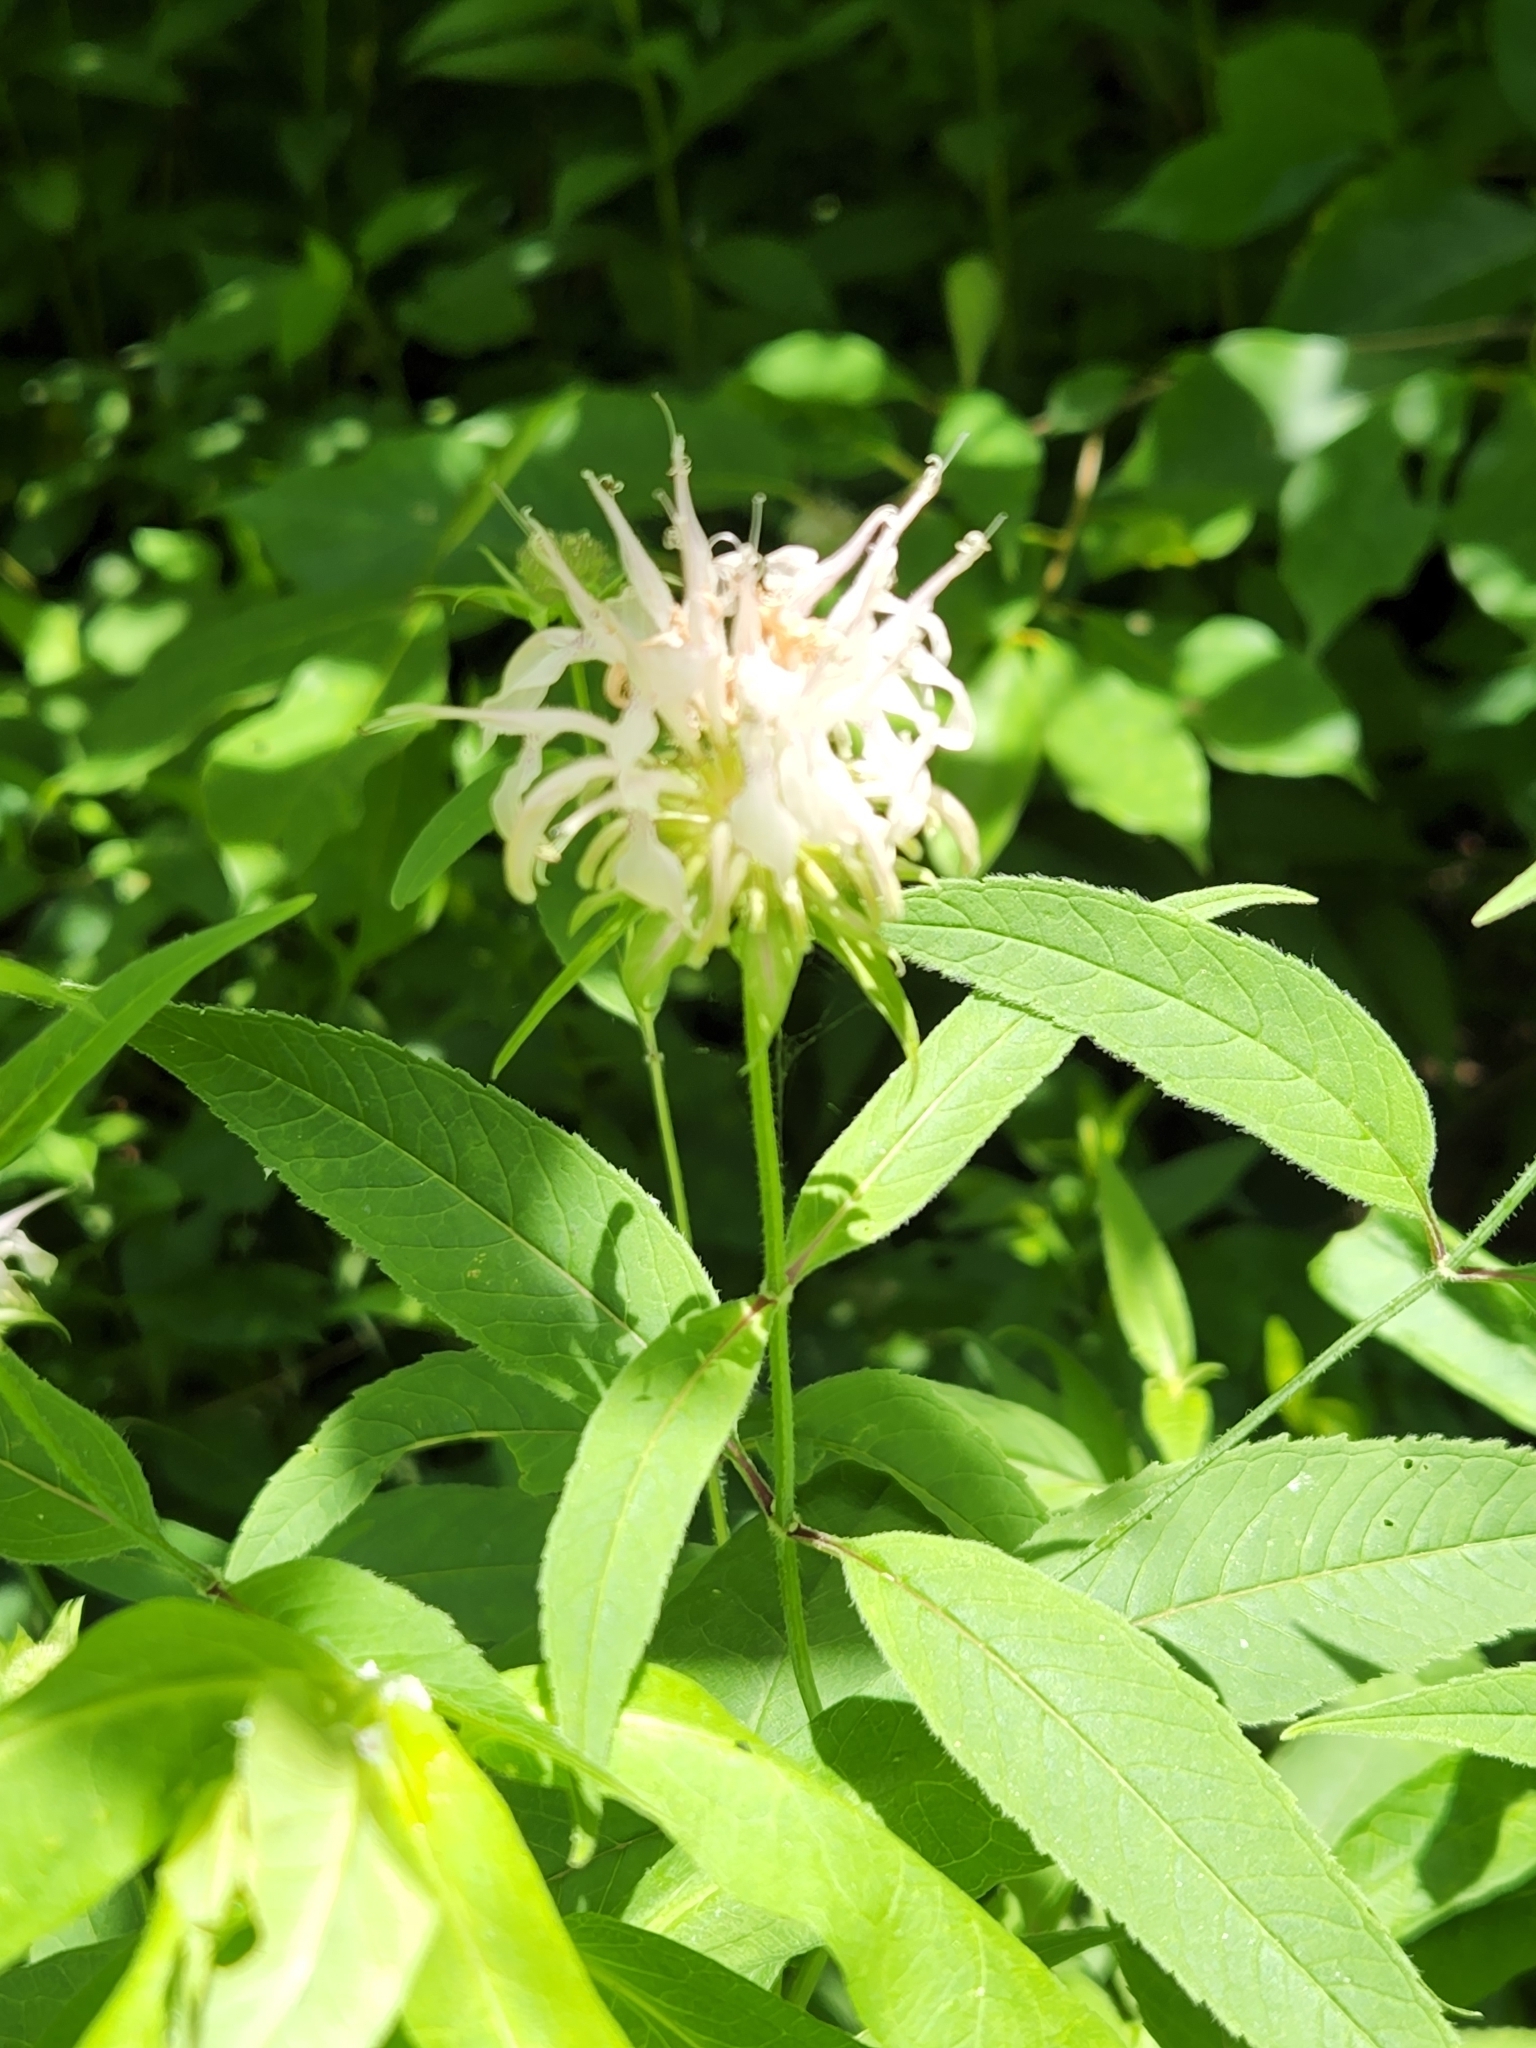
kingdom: Plantae
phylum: Tracheophyta
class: Magnoliopsida
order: Lamiales
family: Lamiaceae
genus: Monarda
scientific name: Monarda clinopodia
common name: Basil beebalm
